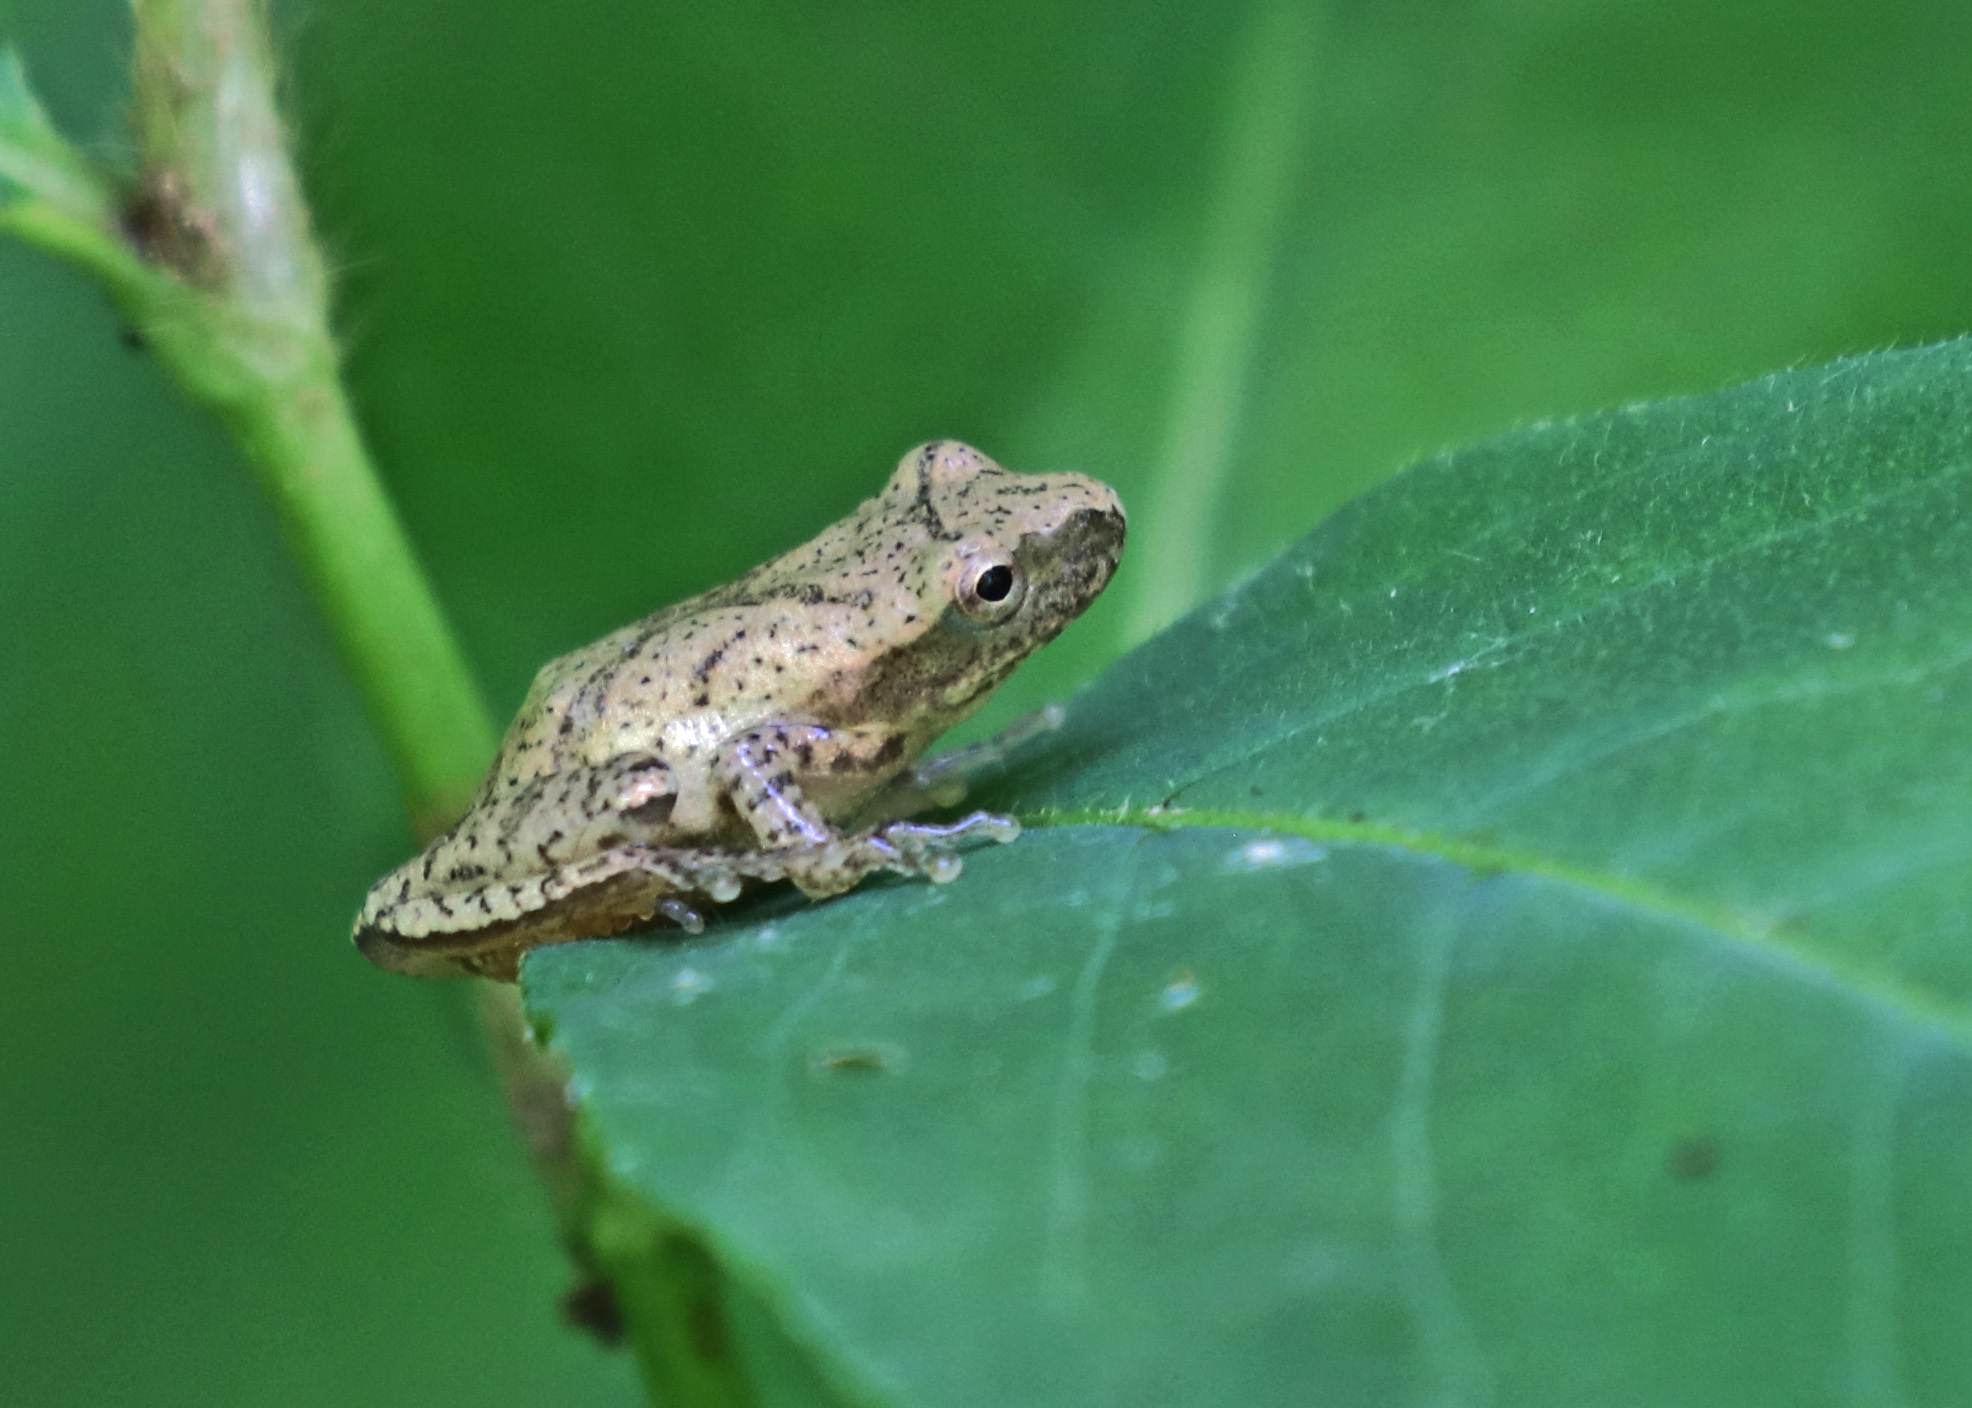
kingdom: Animalia
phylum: Chordata
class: Amphibia
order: Anura
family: Hylidae
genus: Pseudacris
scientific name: Pseudacris crucifer
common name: Spring peeper
